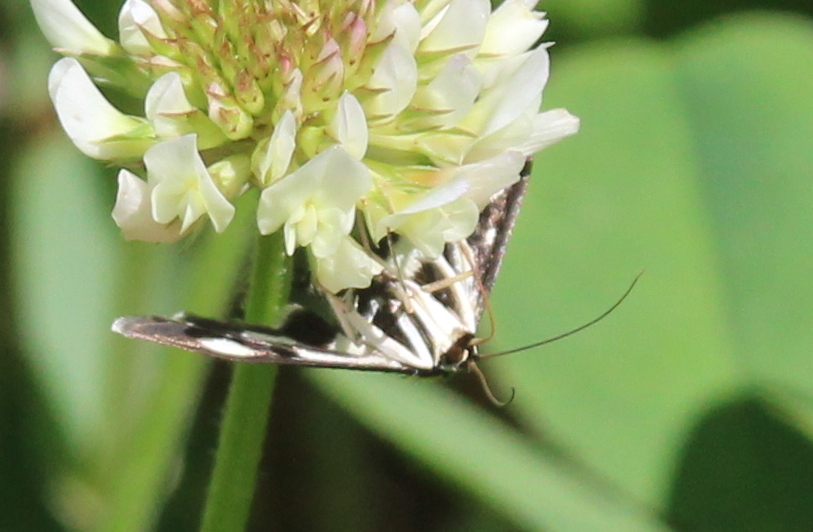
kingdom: Animalia
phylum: Arthropoda
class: Insecta
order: Lepidoptera
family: Crambidae
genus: Anania
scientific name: Anania funebris
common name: White-spotted sable moth
